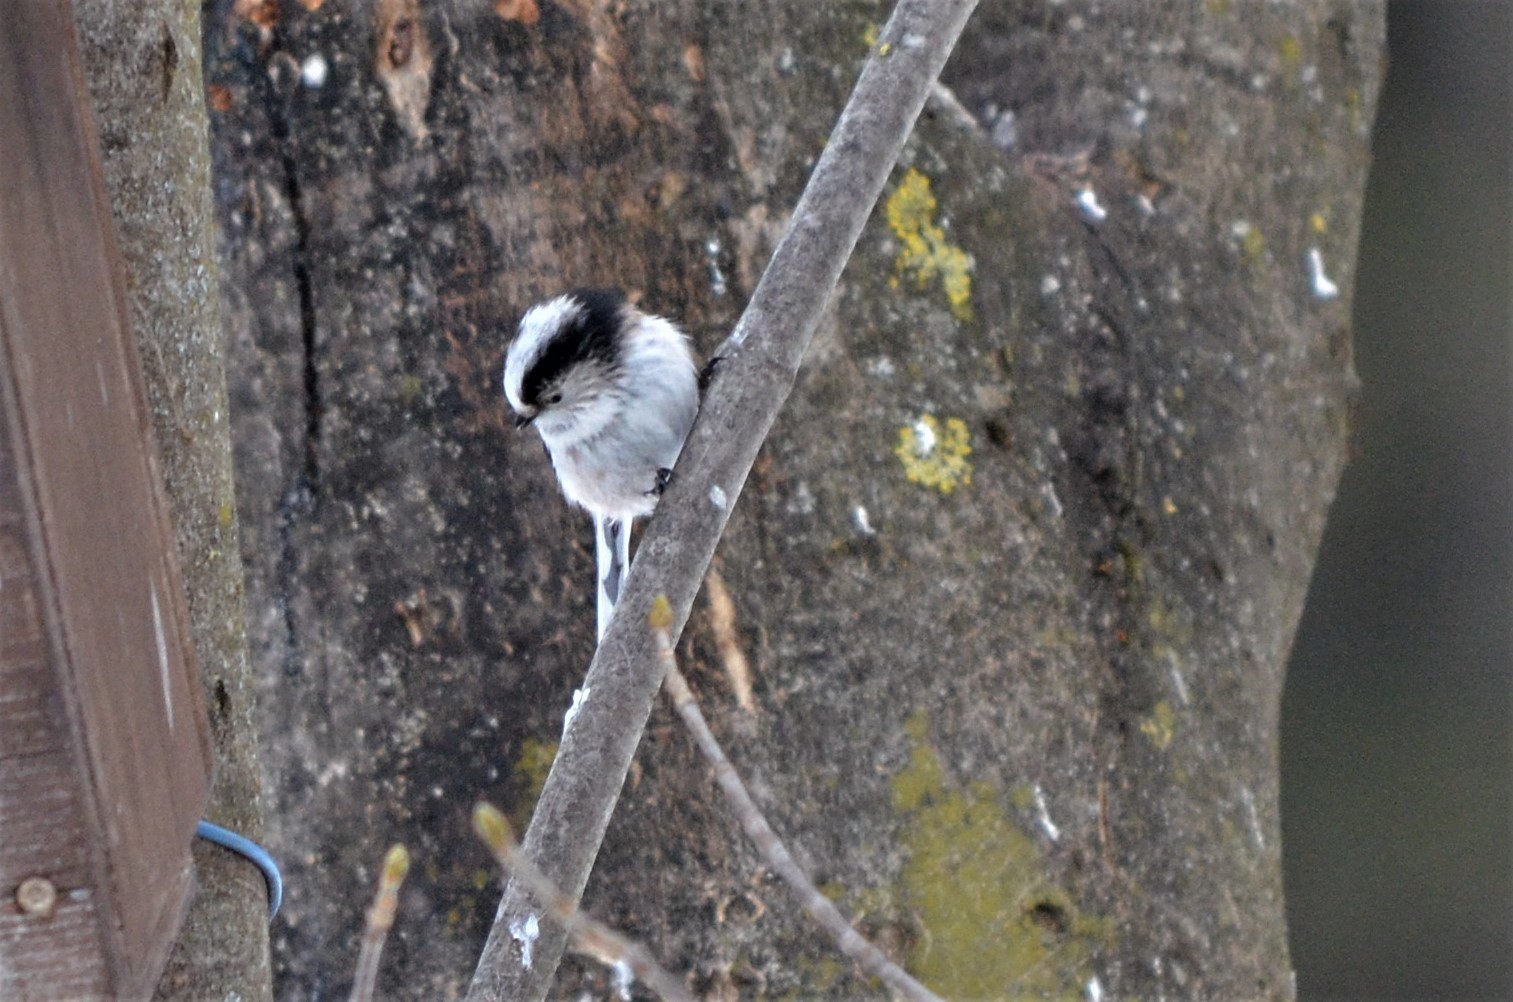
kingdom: Animalia
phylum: Chordata
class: Aves
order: Passeriformes
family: Aegithalidae
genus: Aegithalos
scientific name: Aegithalos caudatus
